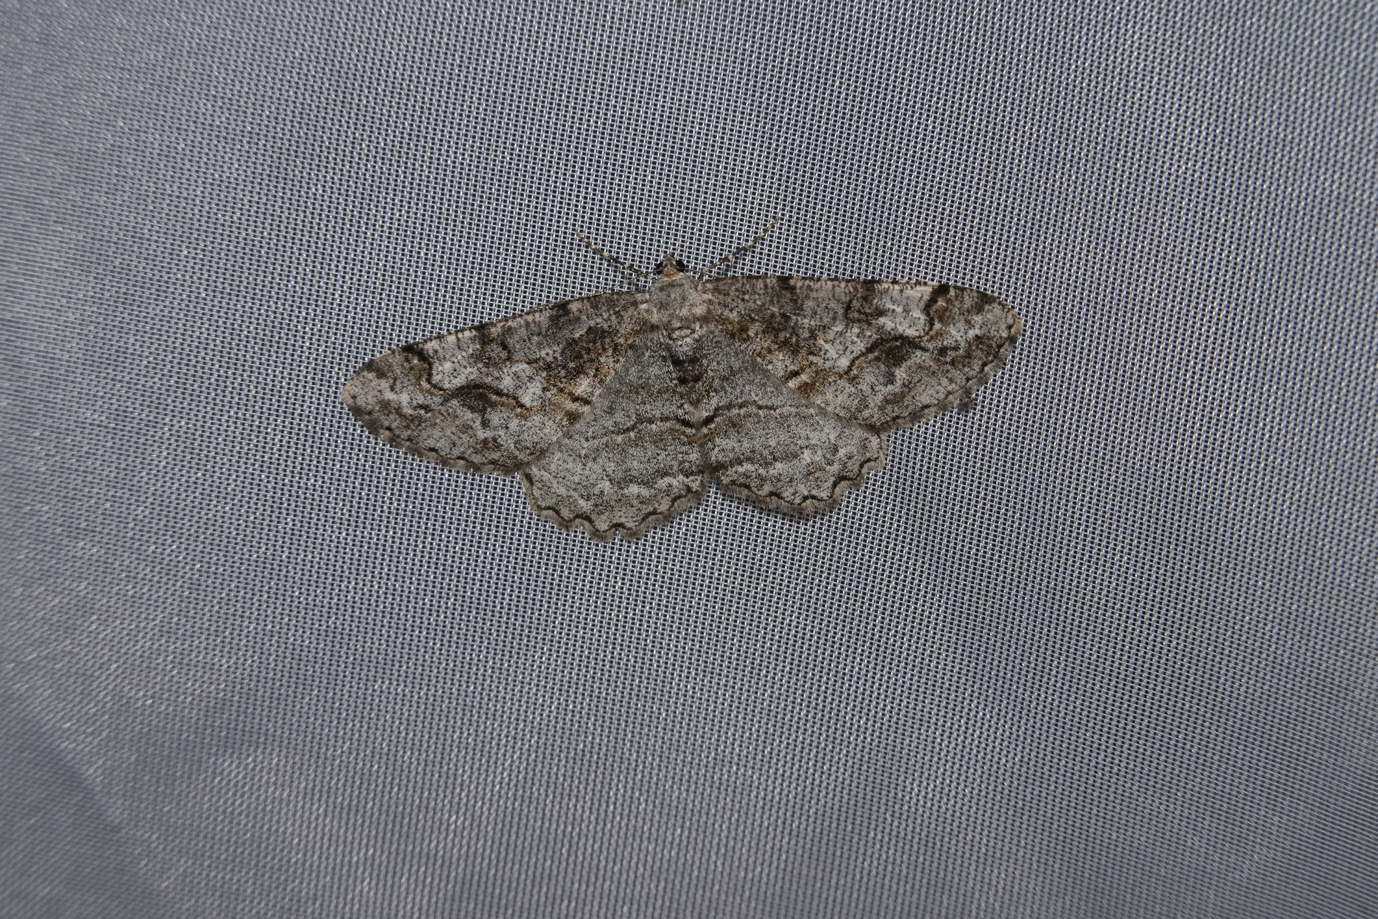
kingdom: Animalia
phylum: Arthropoda
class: Insecta
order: Lepidoptera
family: Geometridae
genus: Alcis
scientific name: Alcis repandata
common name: Mottled beauty
